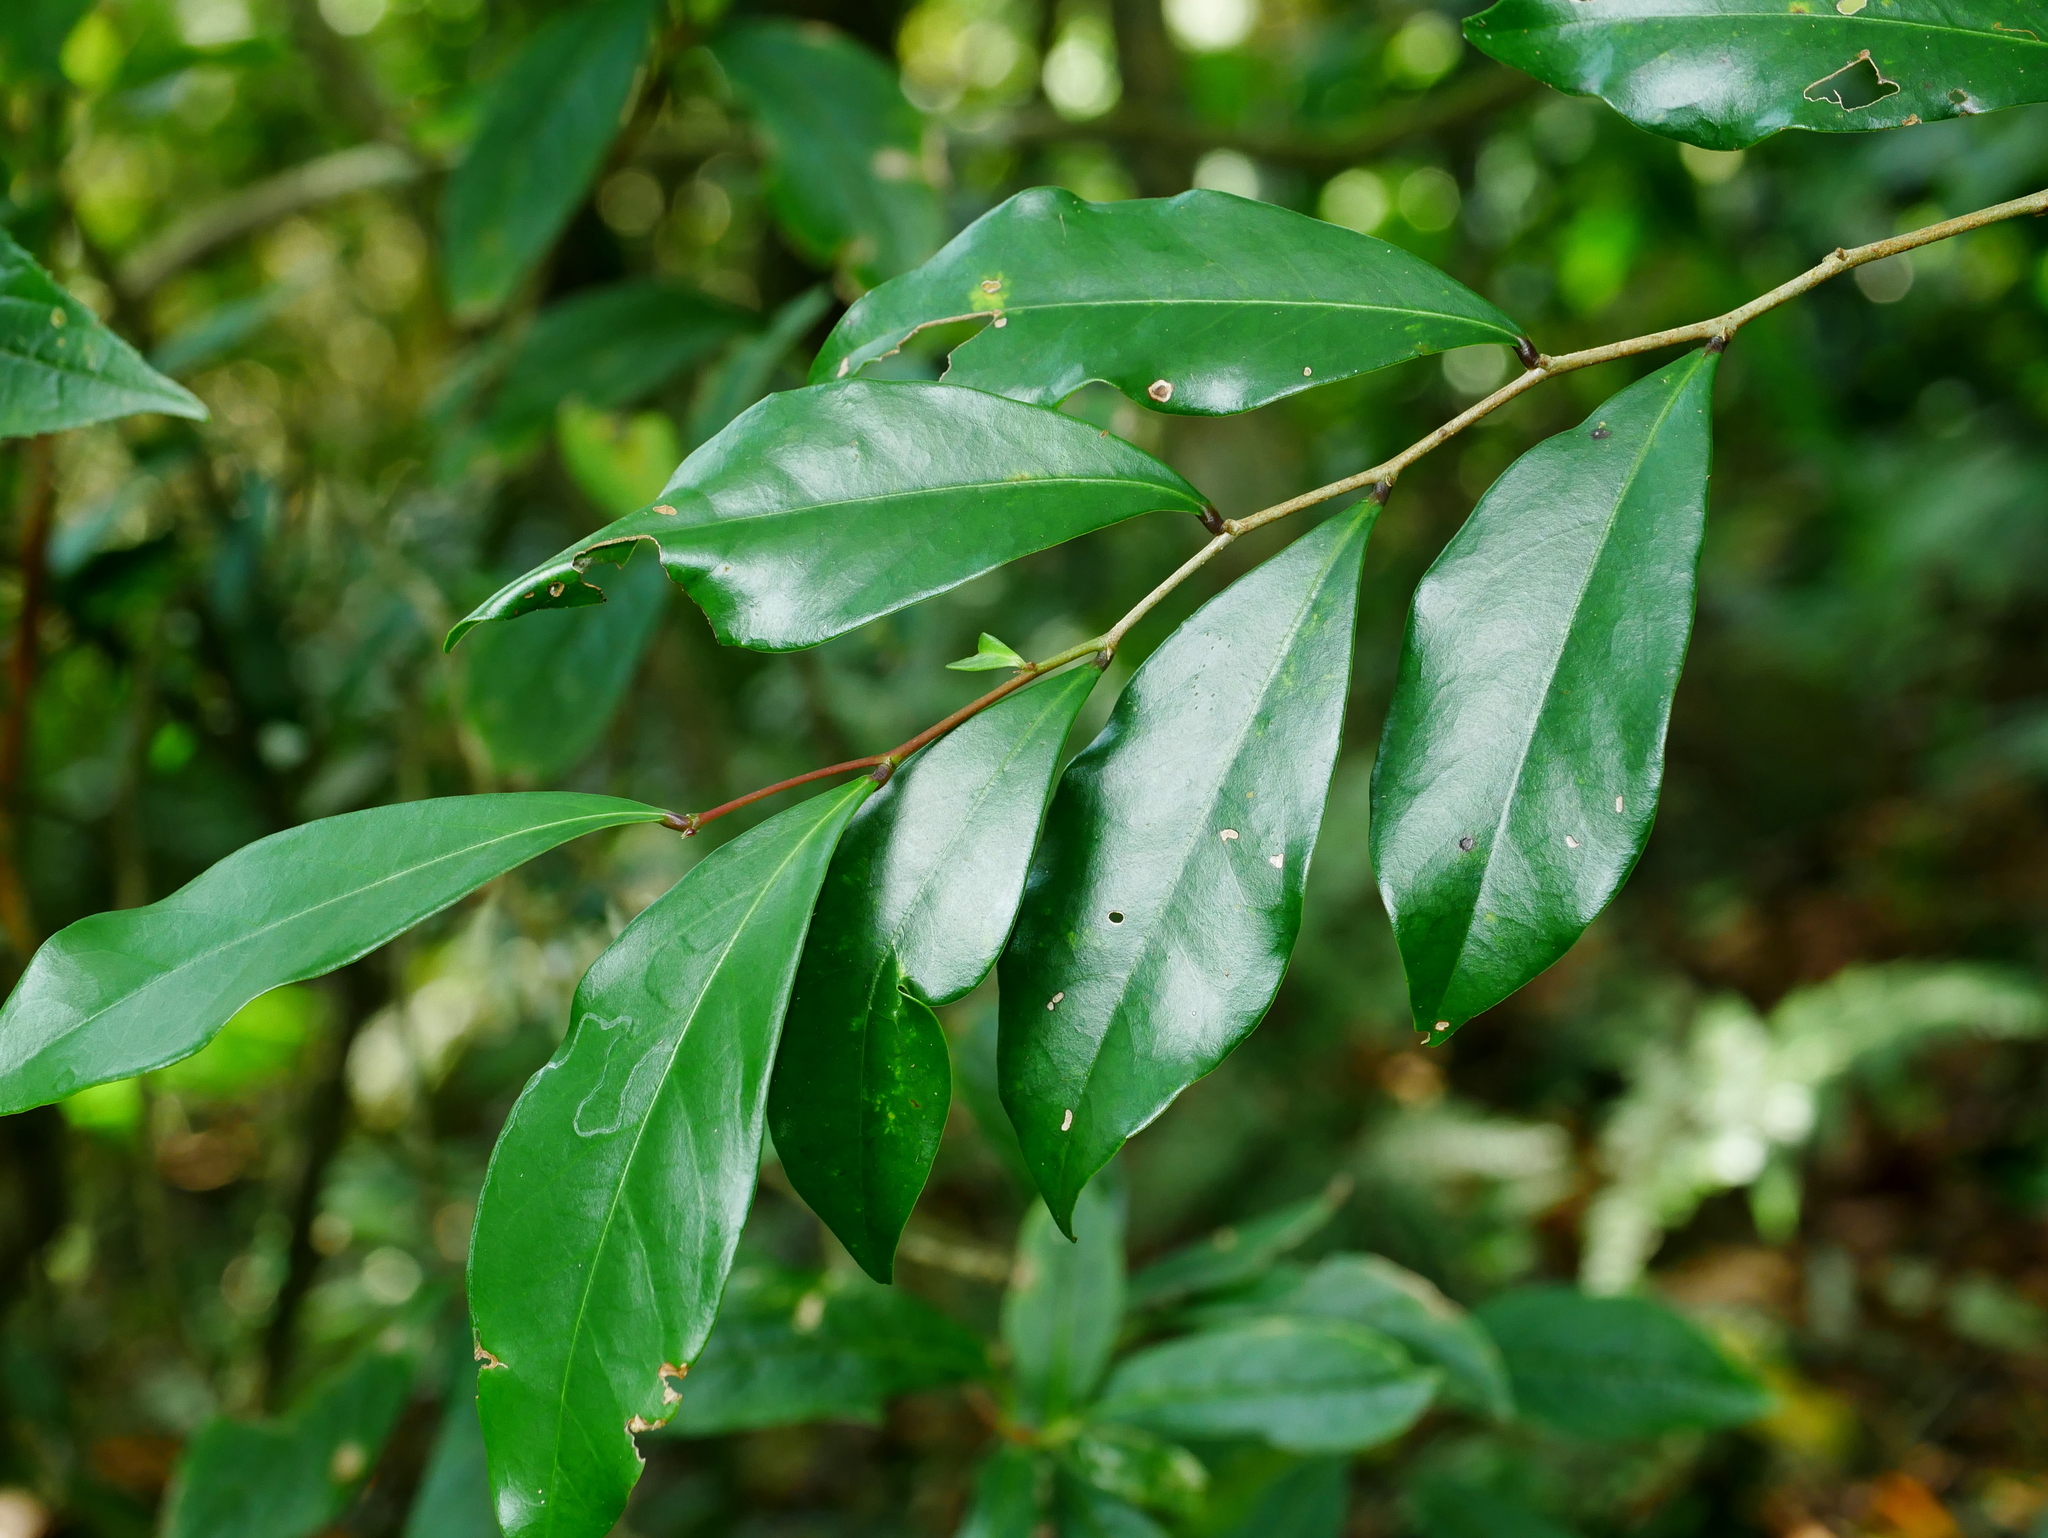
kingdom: Plantae
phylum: Tracheophyta
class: Magnoliopsida
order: Malpighiales
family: Phyllanthaceae
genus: Glochidion
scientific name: Glochidion rubrum
